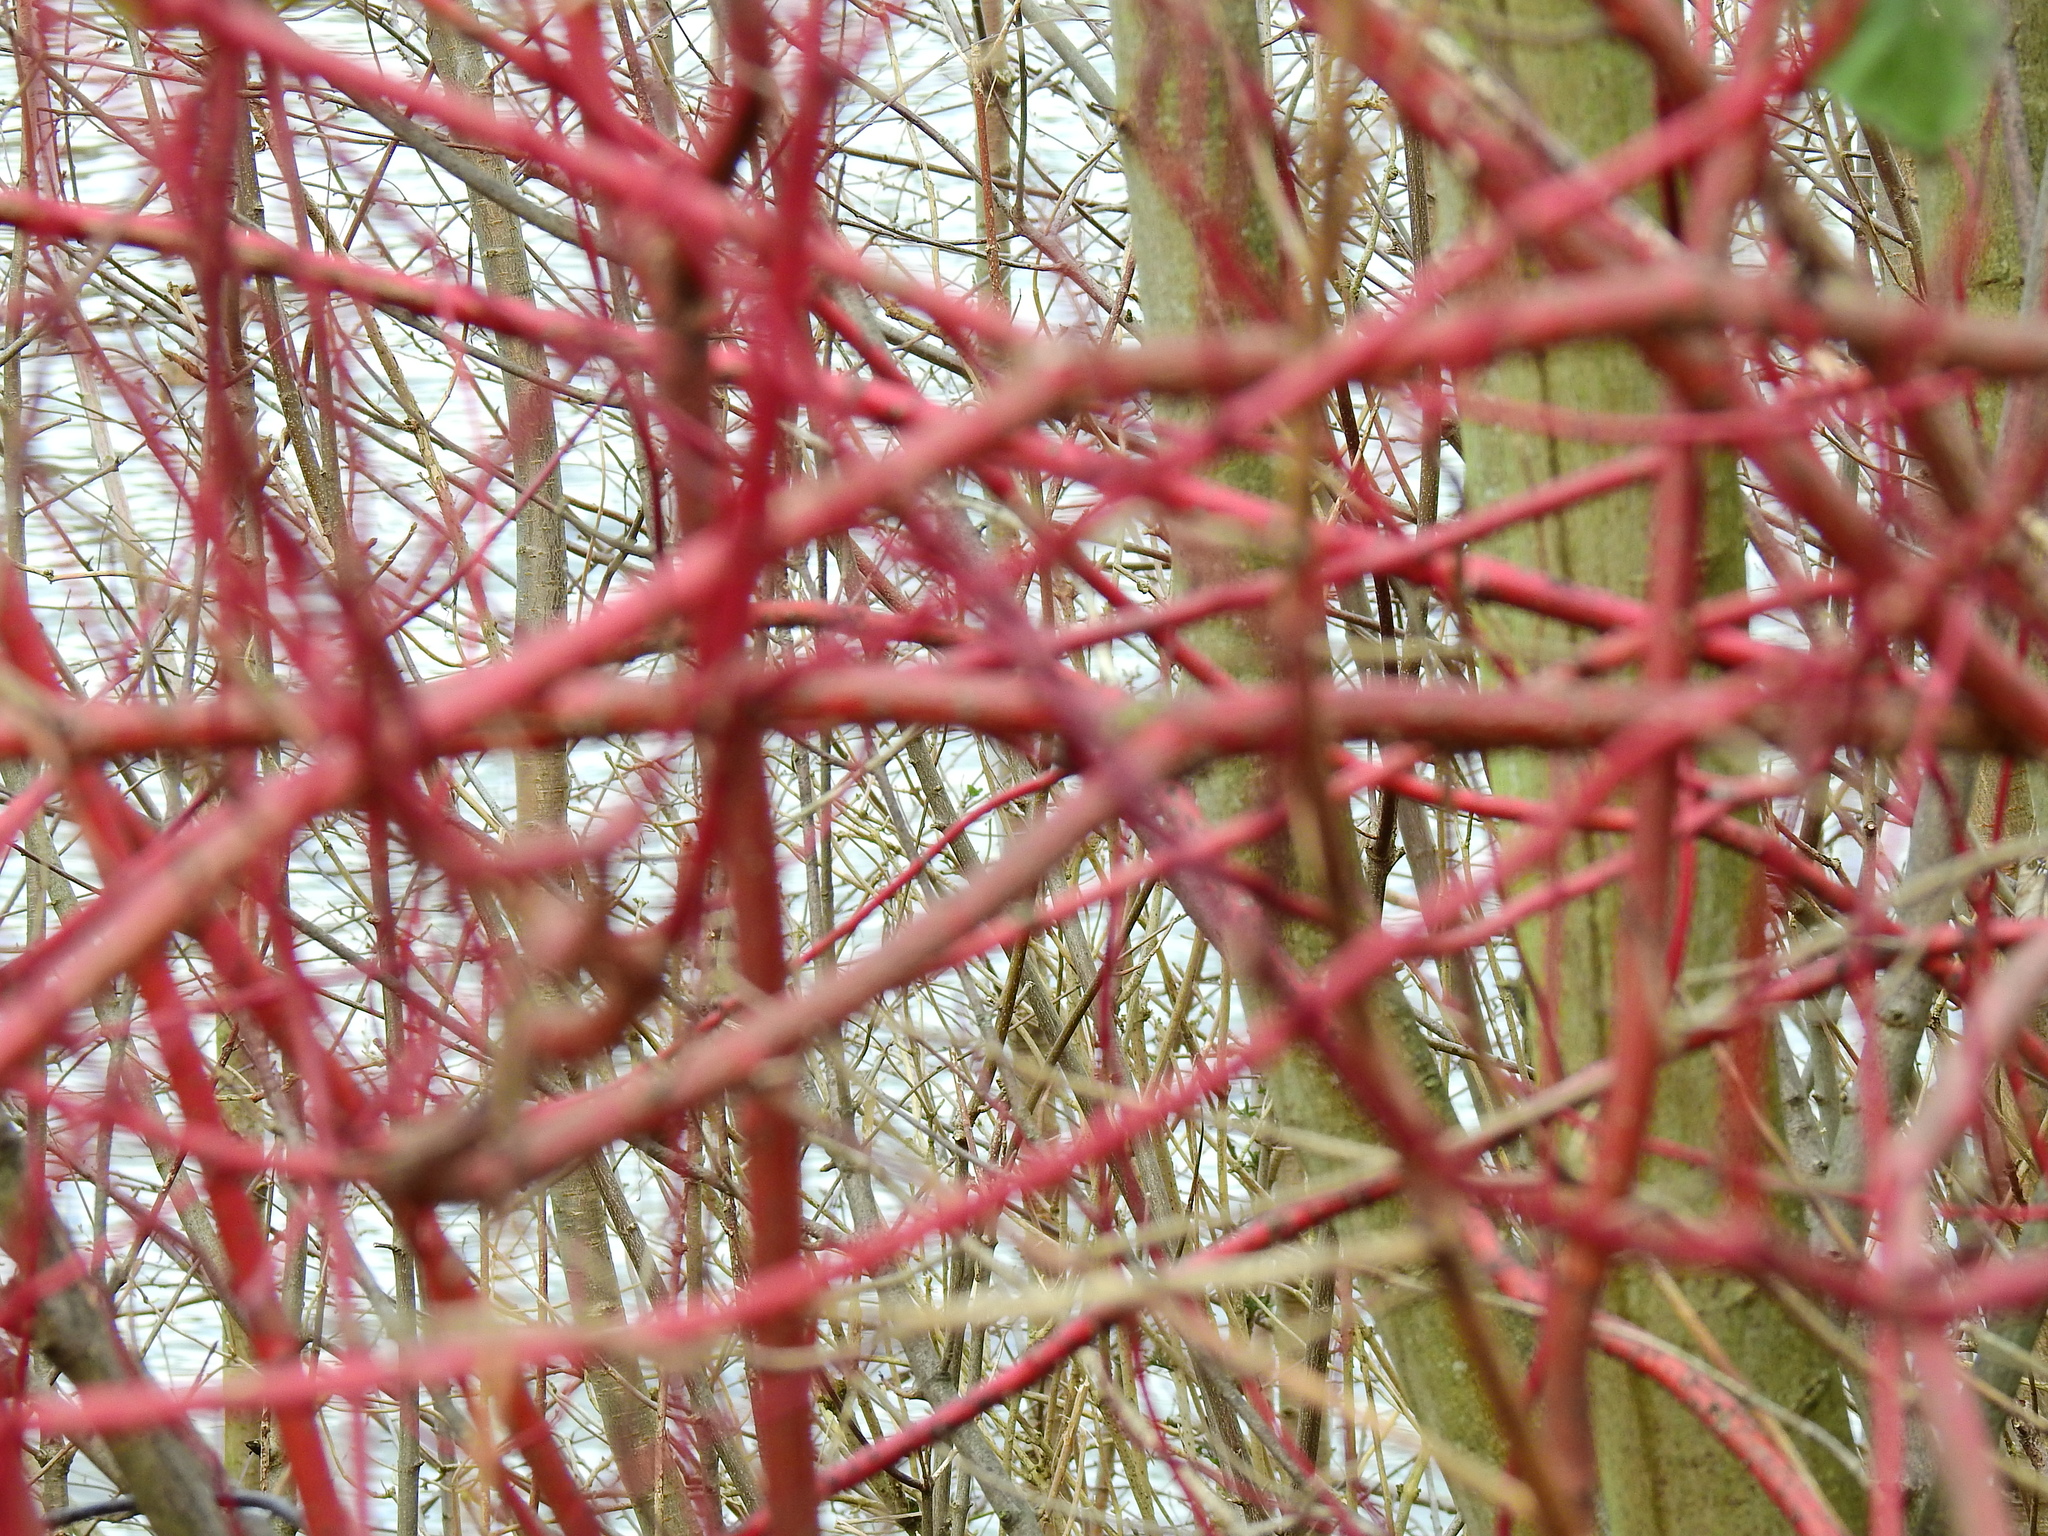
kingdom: Plantae
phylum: Tracheophyta
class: Magnoliopsida
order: Cornales
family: Cornaceae
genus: Cornus
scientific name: Cornus sanguinea
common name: Dogwood
